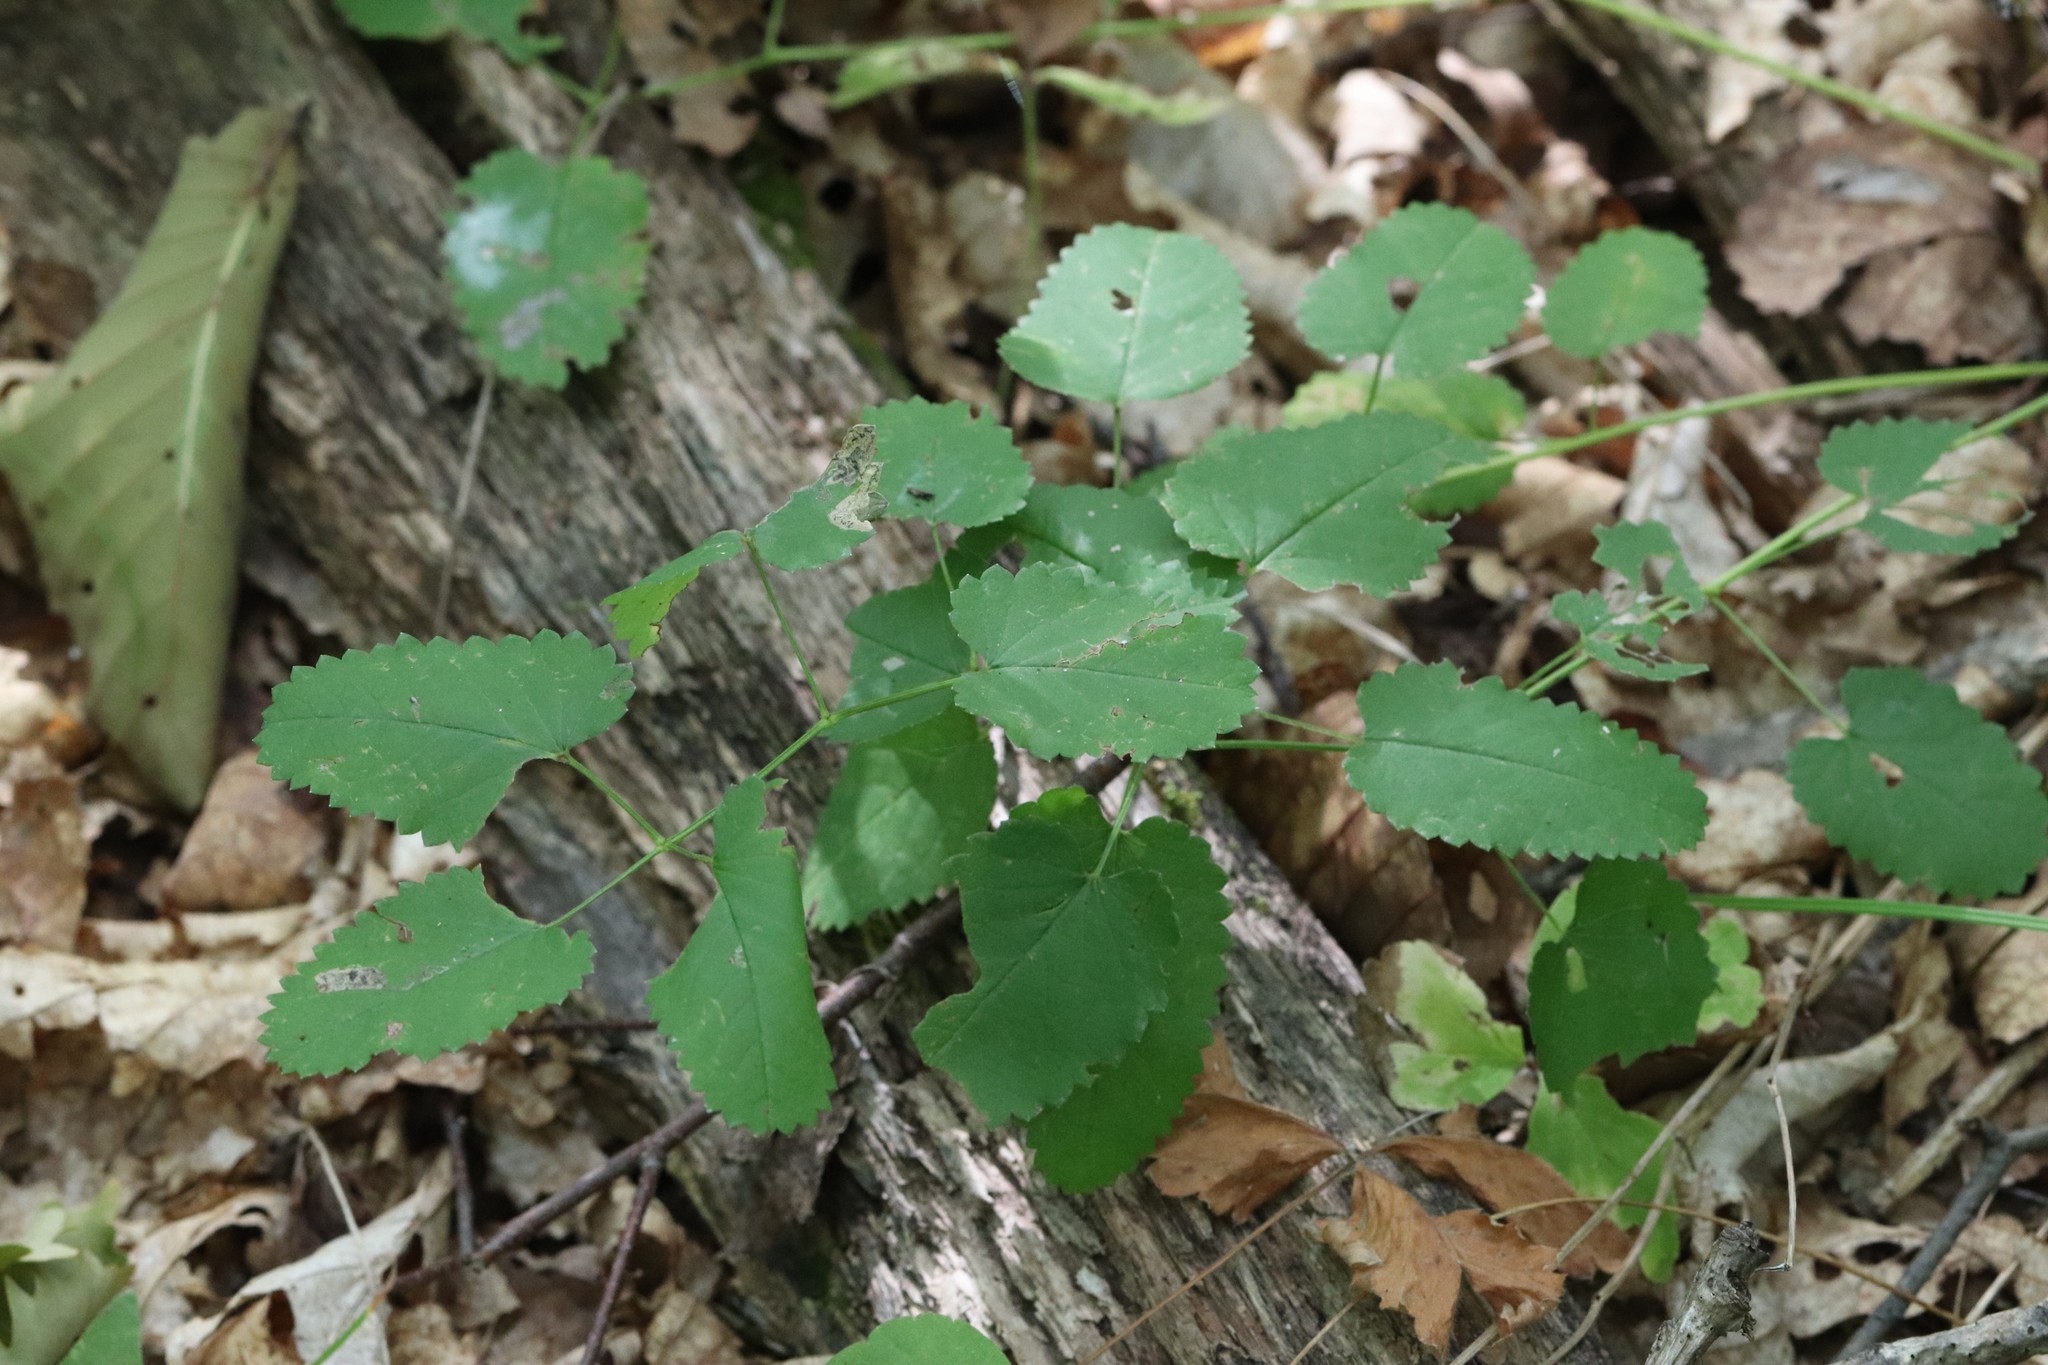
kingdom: Plantae
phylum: Tracheophyta
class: Magnoliopsida
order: Rosales
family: Rosaceae
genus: Sanguisorba
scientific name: Sanguisorba officinalis
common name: Great burnet
